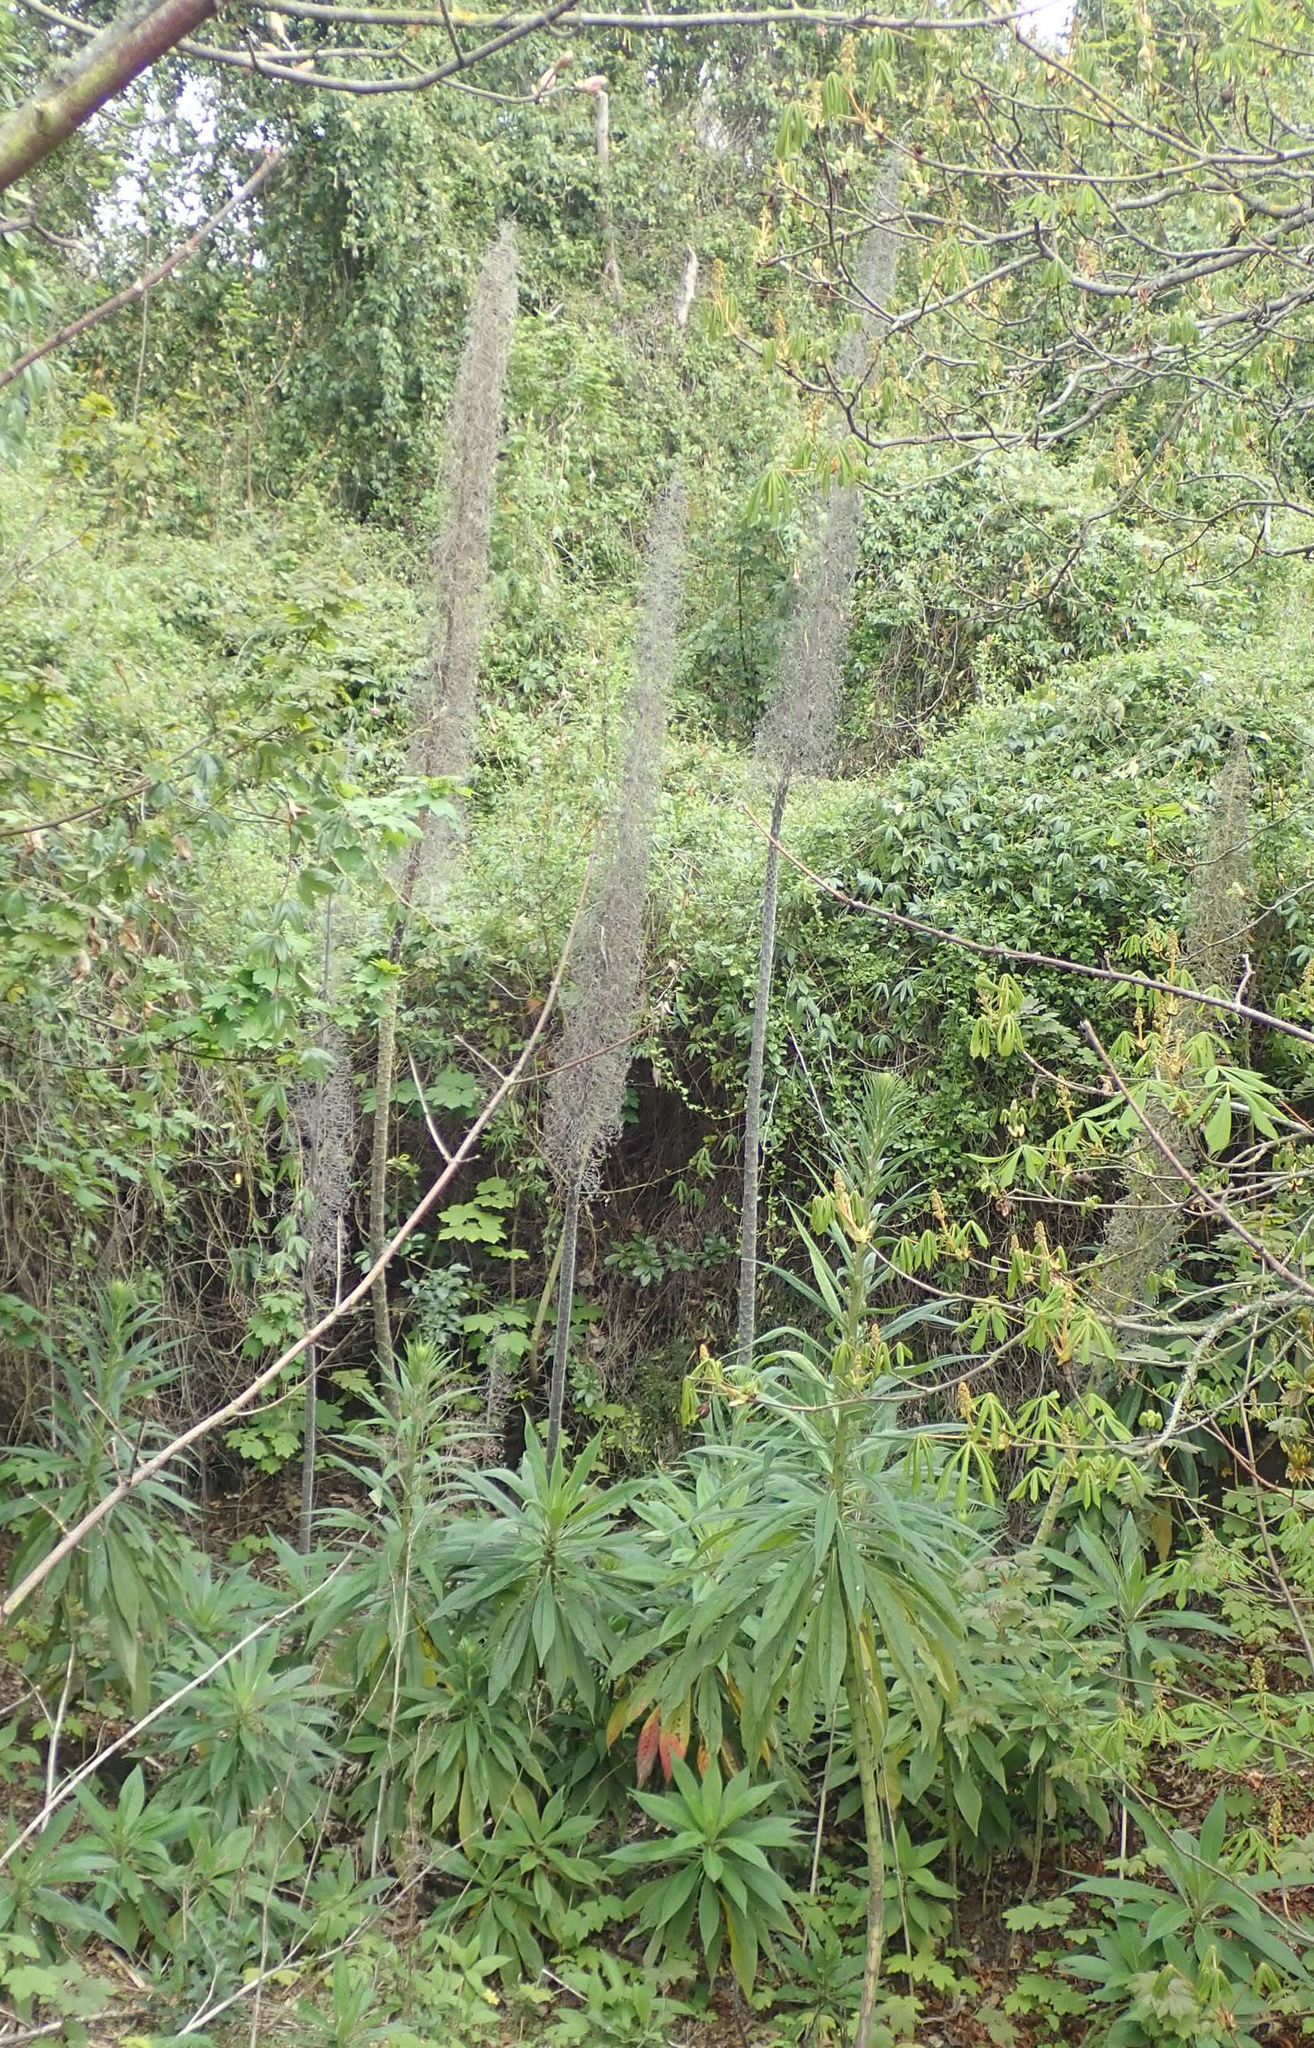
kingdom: Plantae
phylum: Tracheophyta
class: Magnoliopsida
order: Boraginales
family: Boraginaceae
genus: Echium
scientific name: Echium pininana
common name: Giant viper's-bugloss
